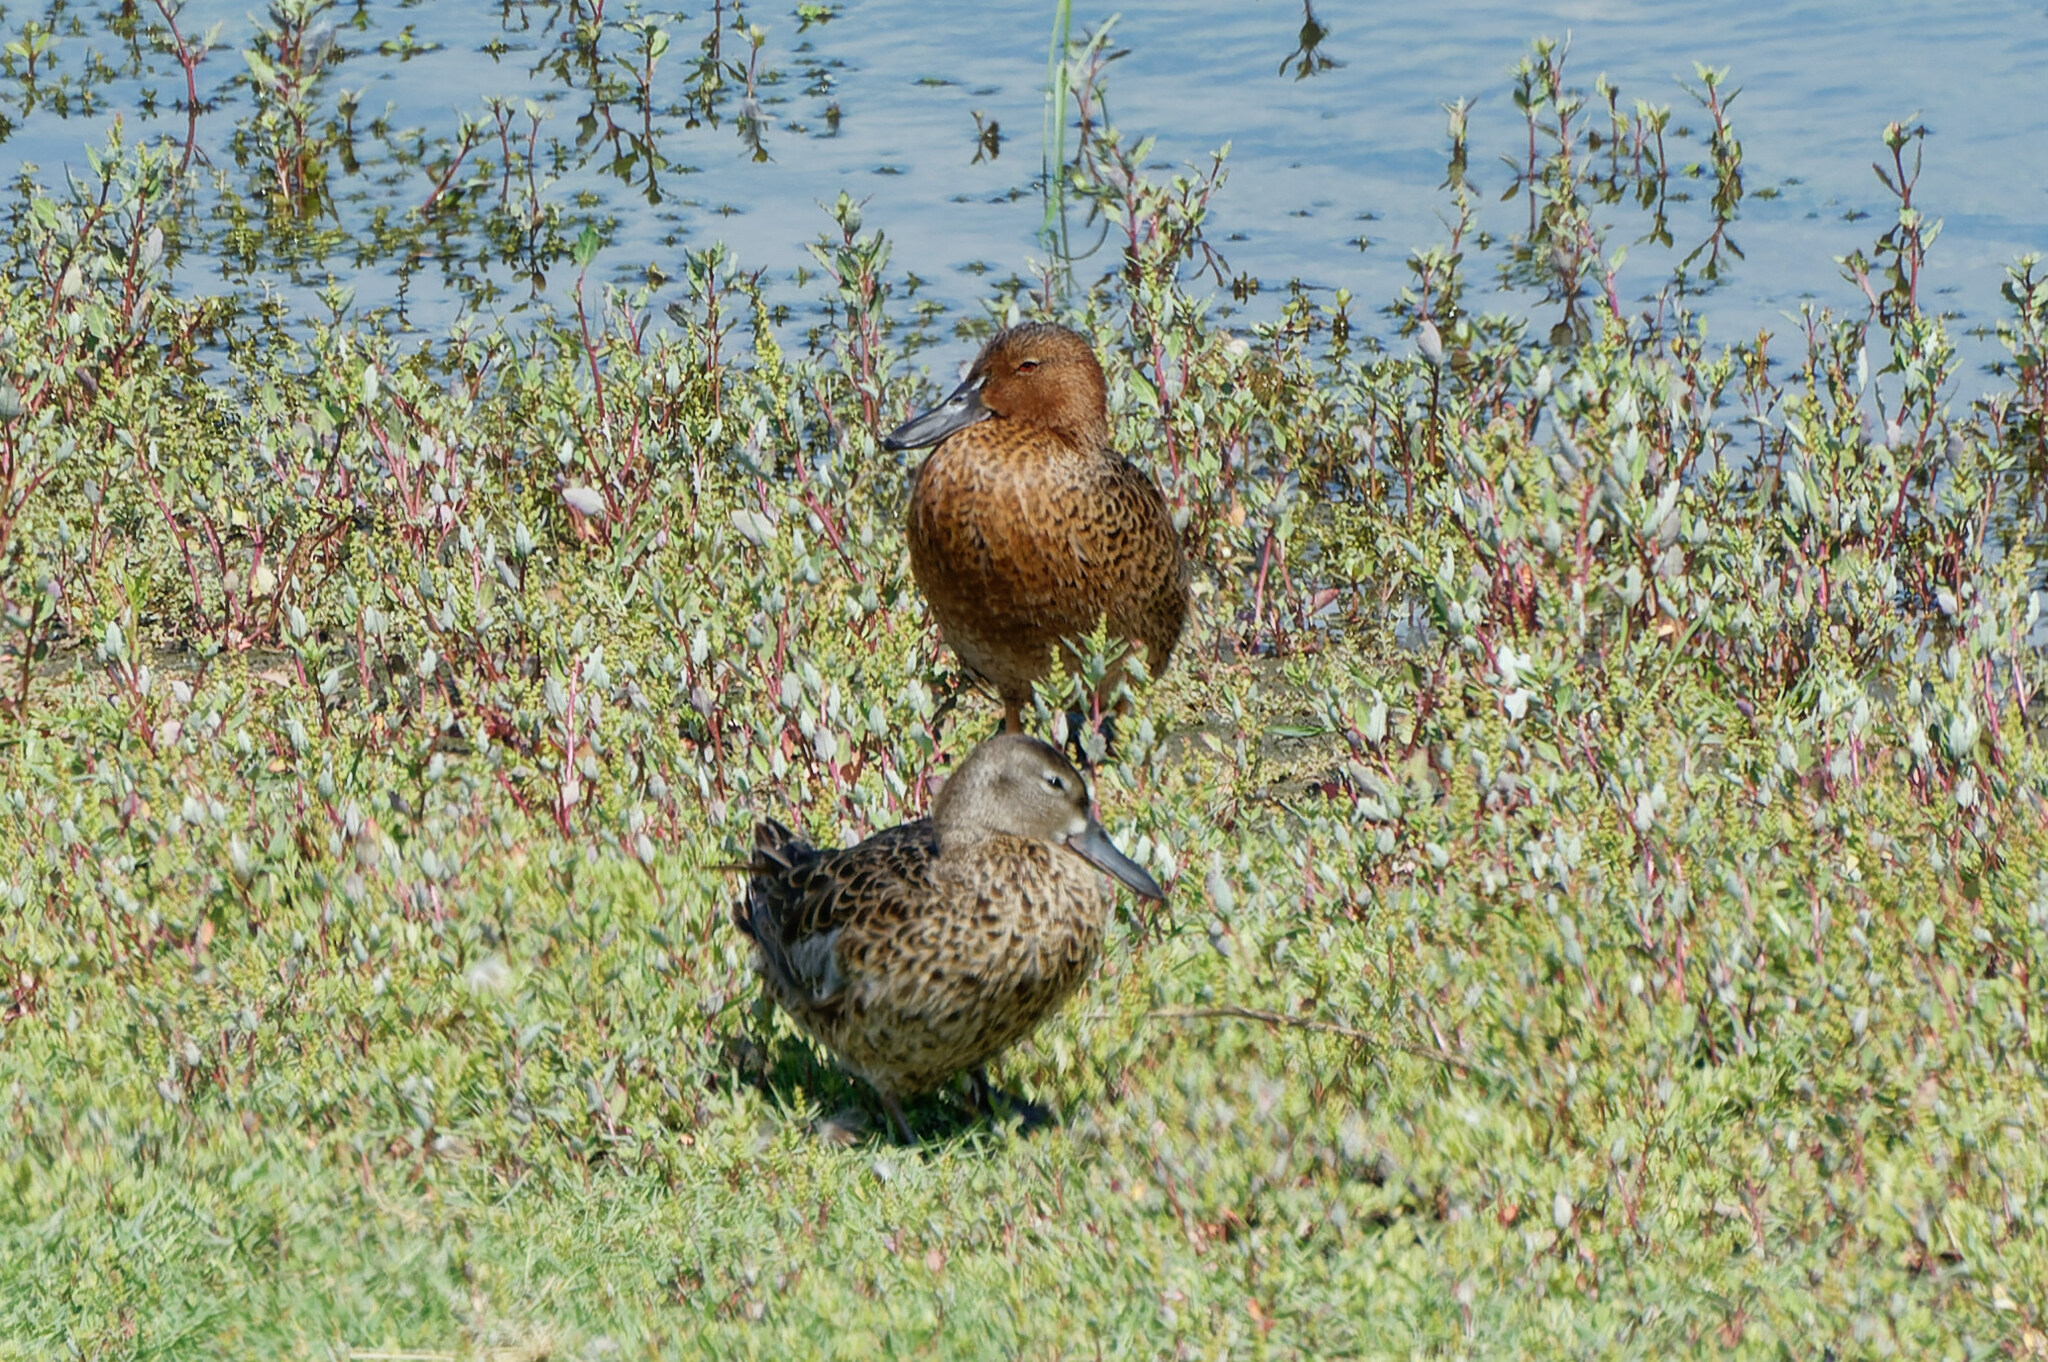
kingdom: Animalia
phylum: Chordata
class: Aves
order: Anseriformes
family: Anatidae
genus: Spatula
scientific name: Spatula cyanoptera
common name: Cinnamon teal
